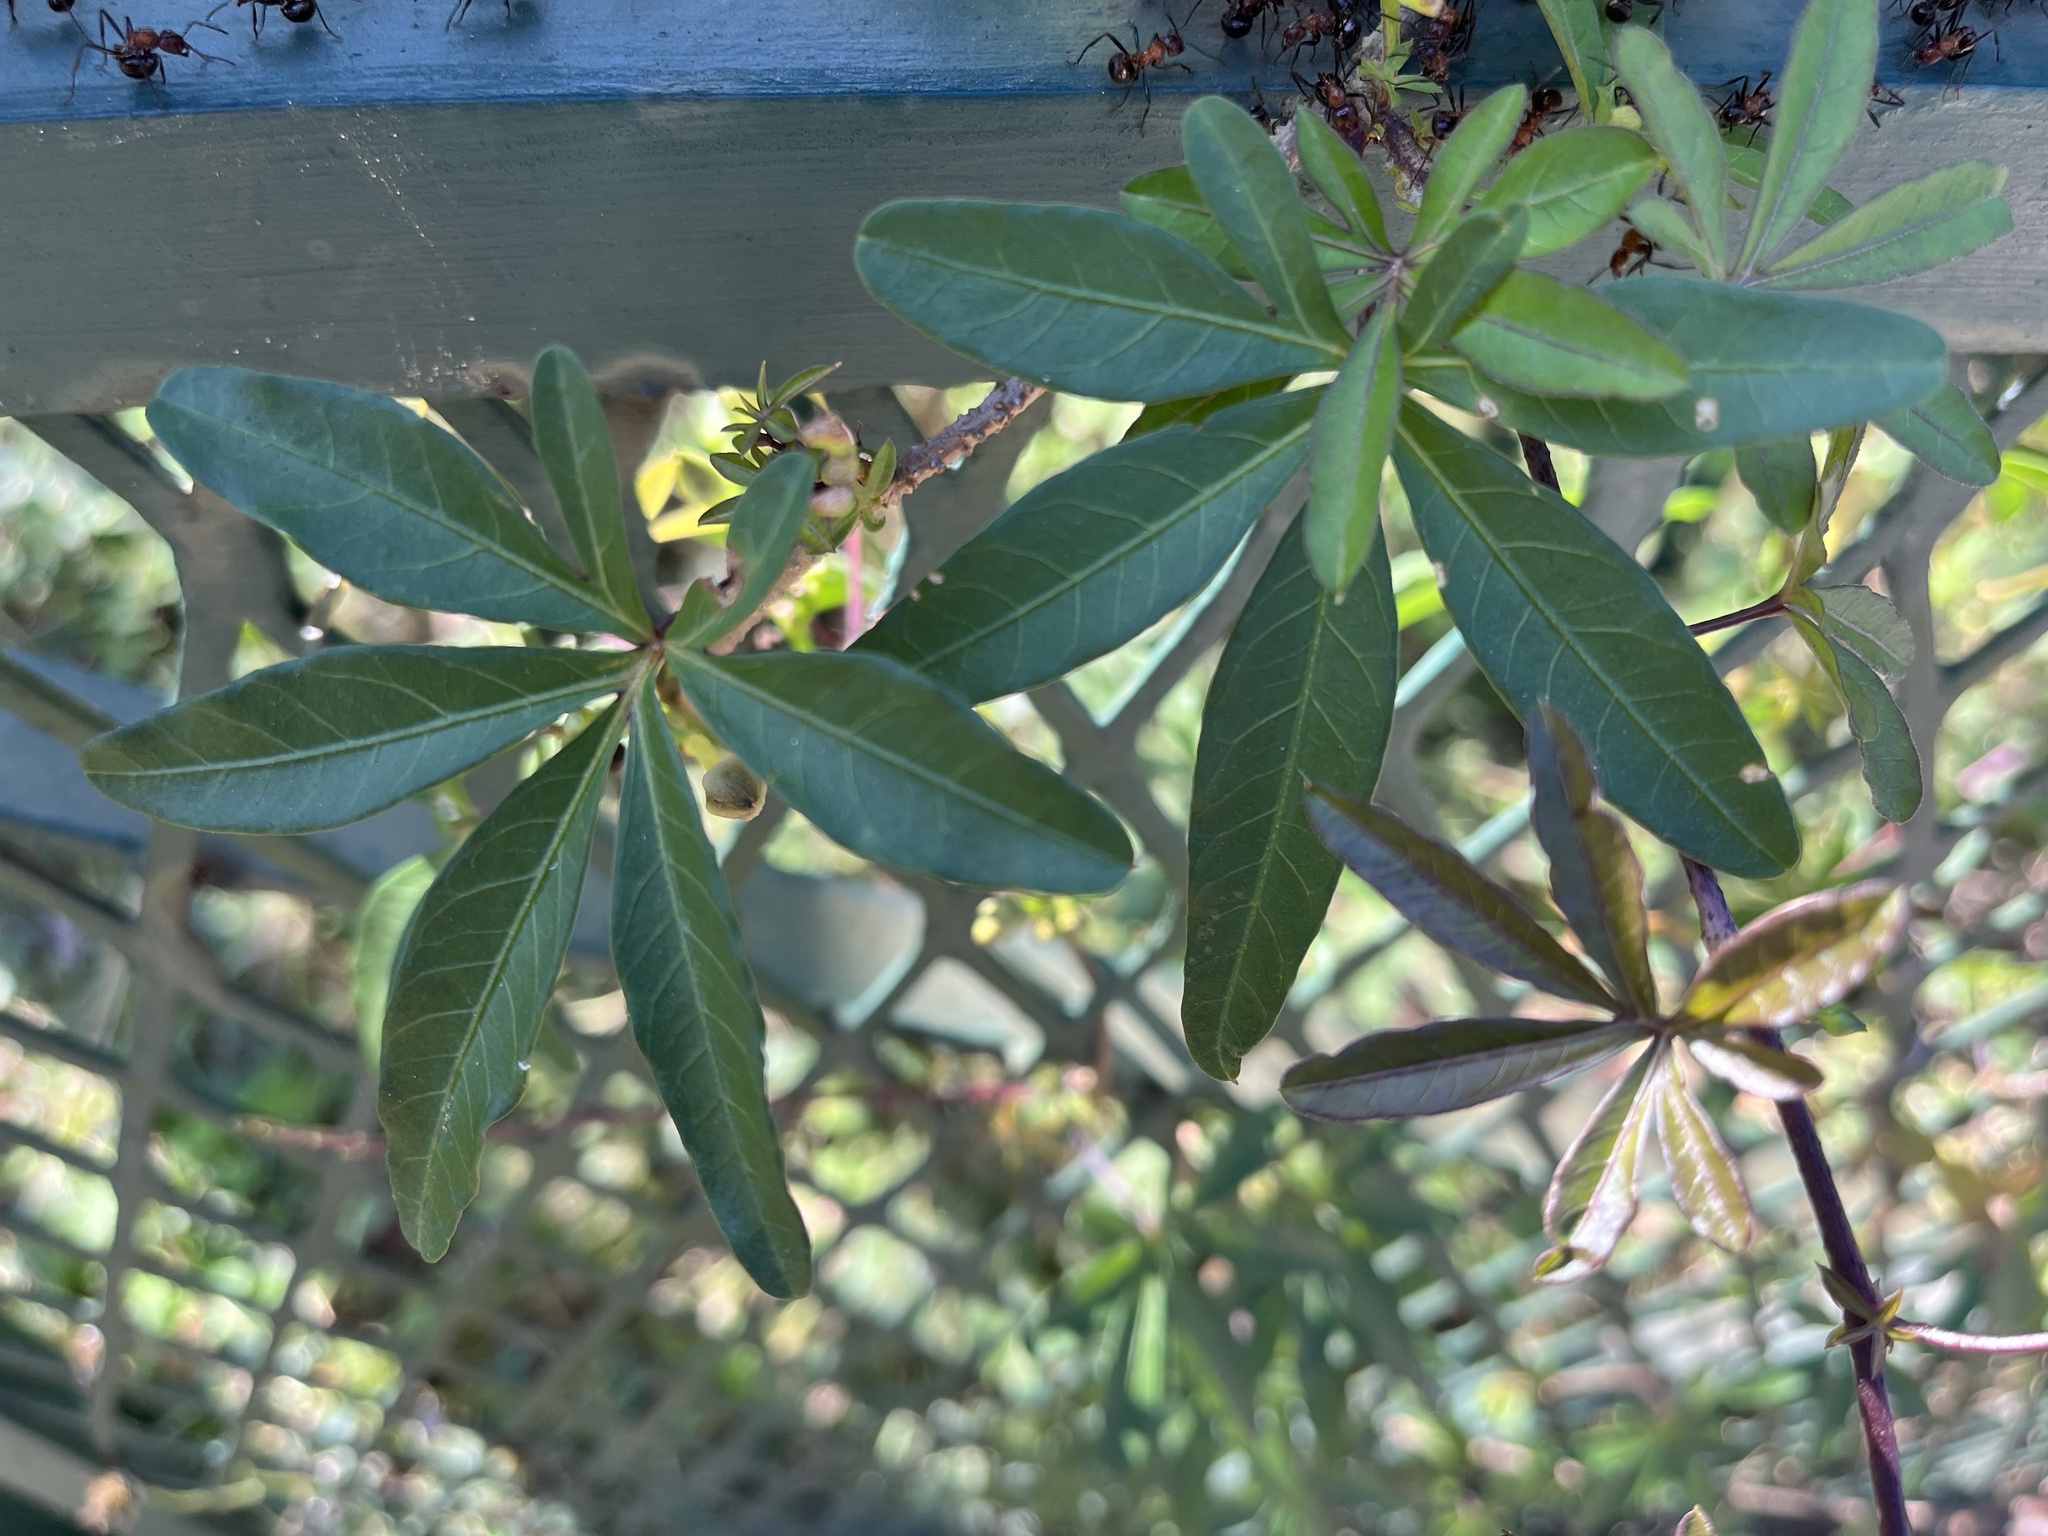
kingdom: Plantae
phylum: Tracheophyta
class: Magnoliopsida
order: Solanales
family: Convolvulaceae
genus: Ipomoea
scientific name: Ipomoea cairica
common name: Mile a minute vine
